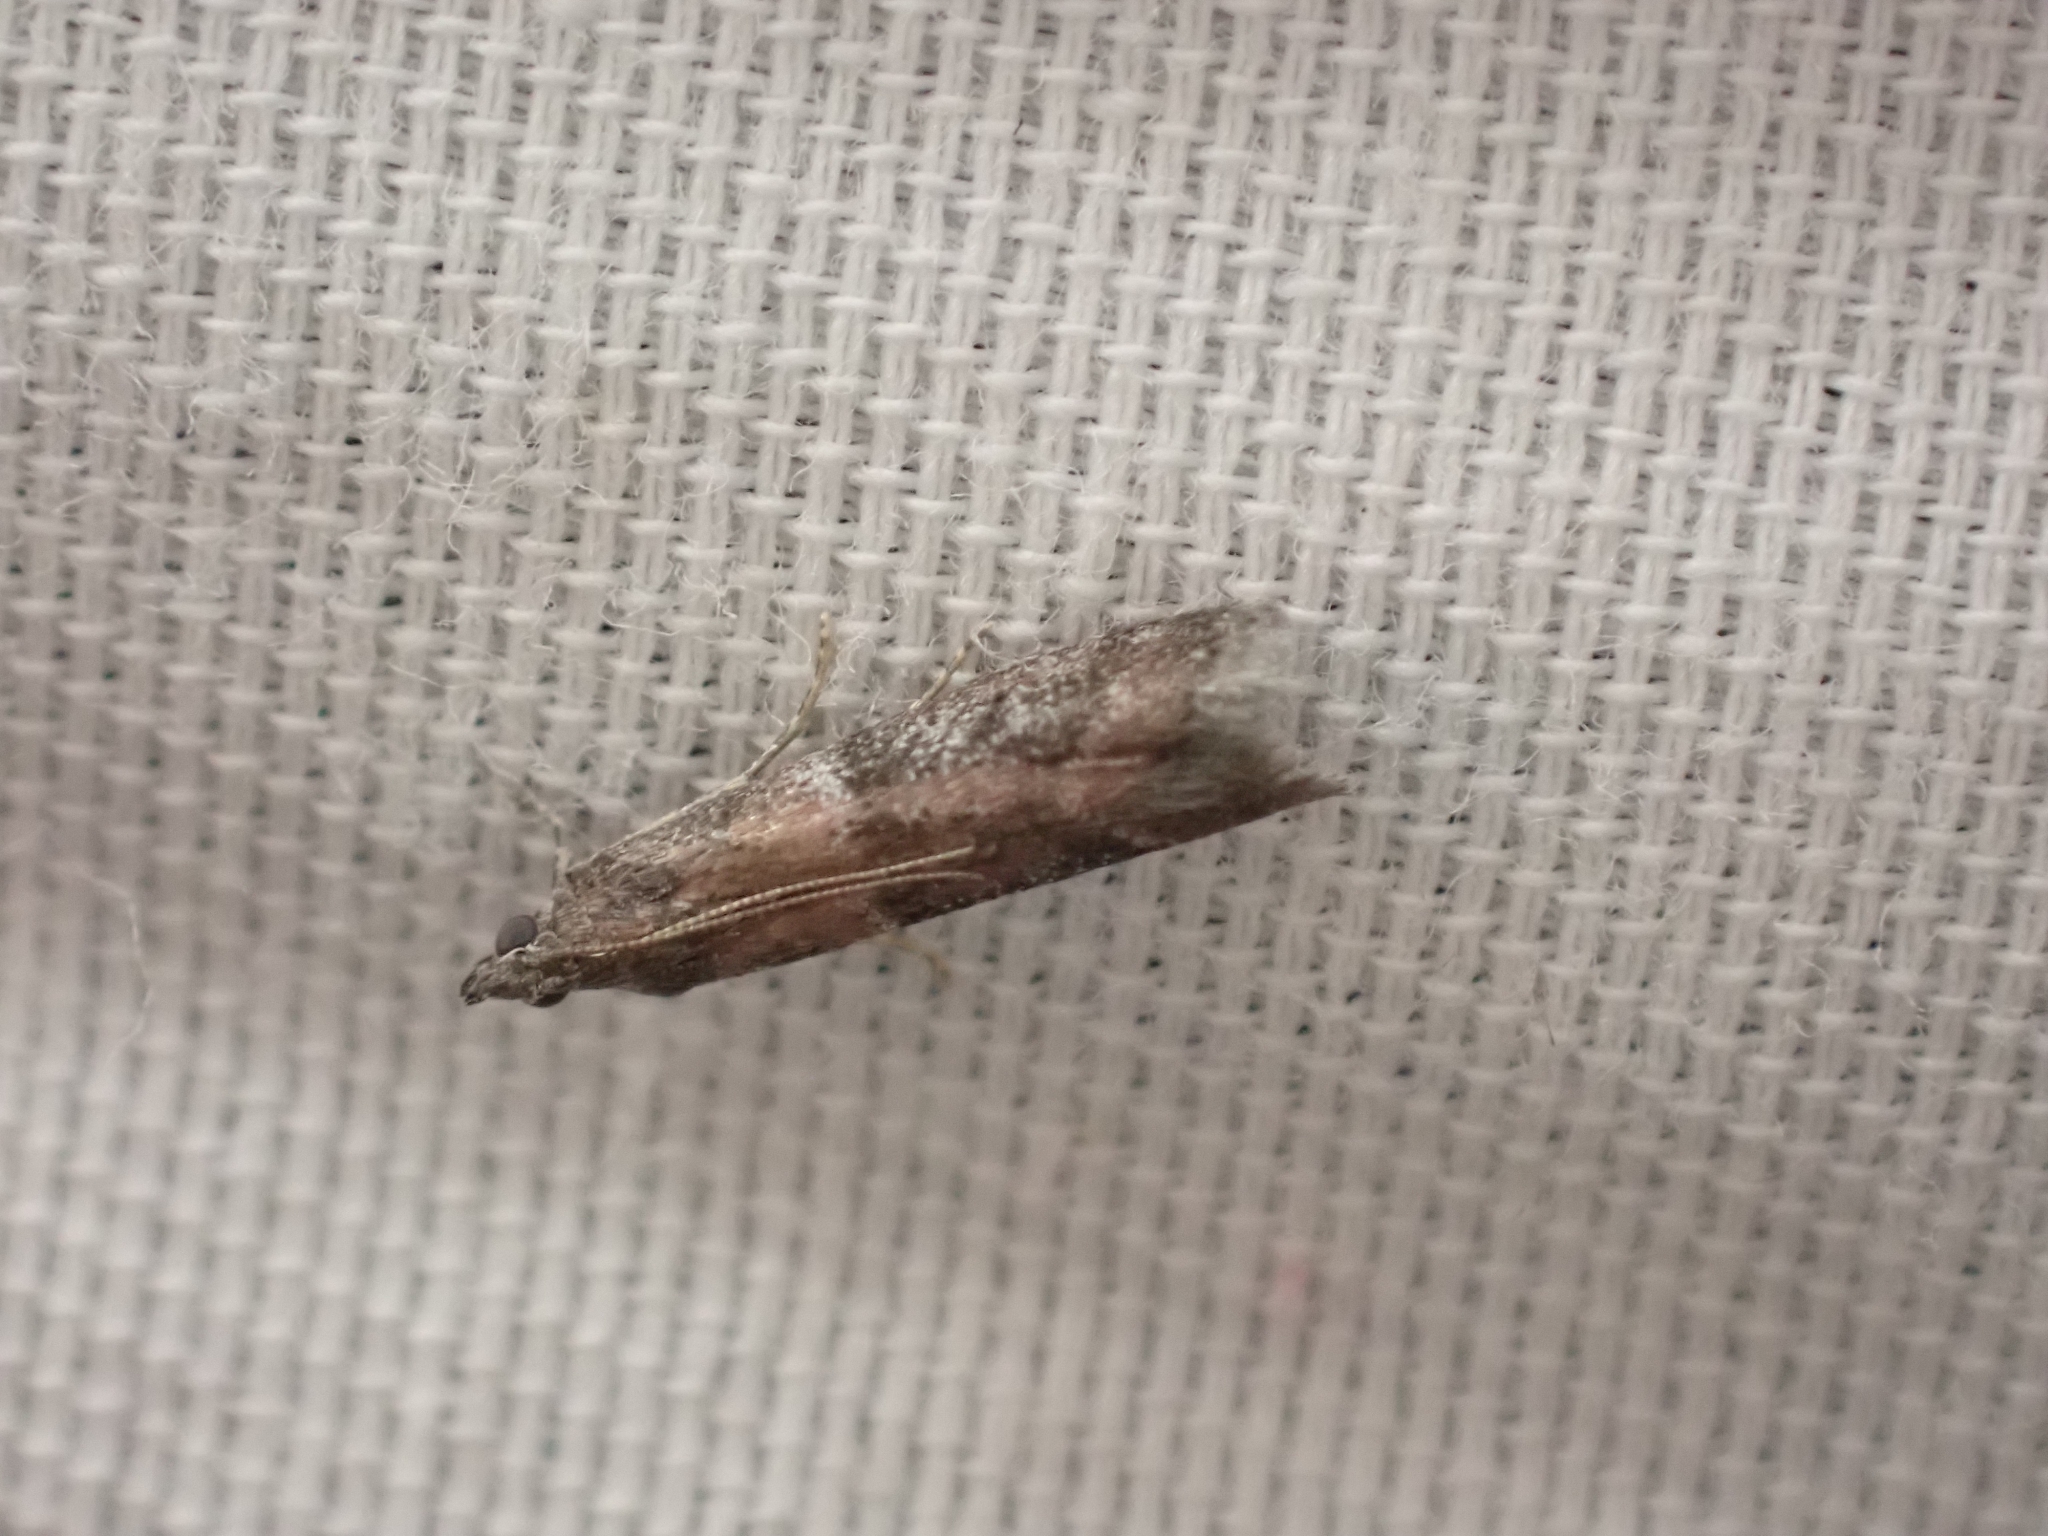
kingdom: Animalia
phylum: Arthropoda
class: Insecta
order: Lepidoptera
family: Pyralidae
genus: Ephestiodes
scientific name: Ephestiodes erythrella
